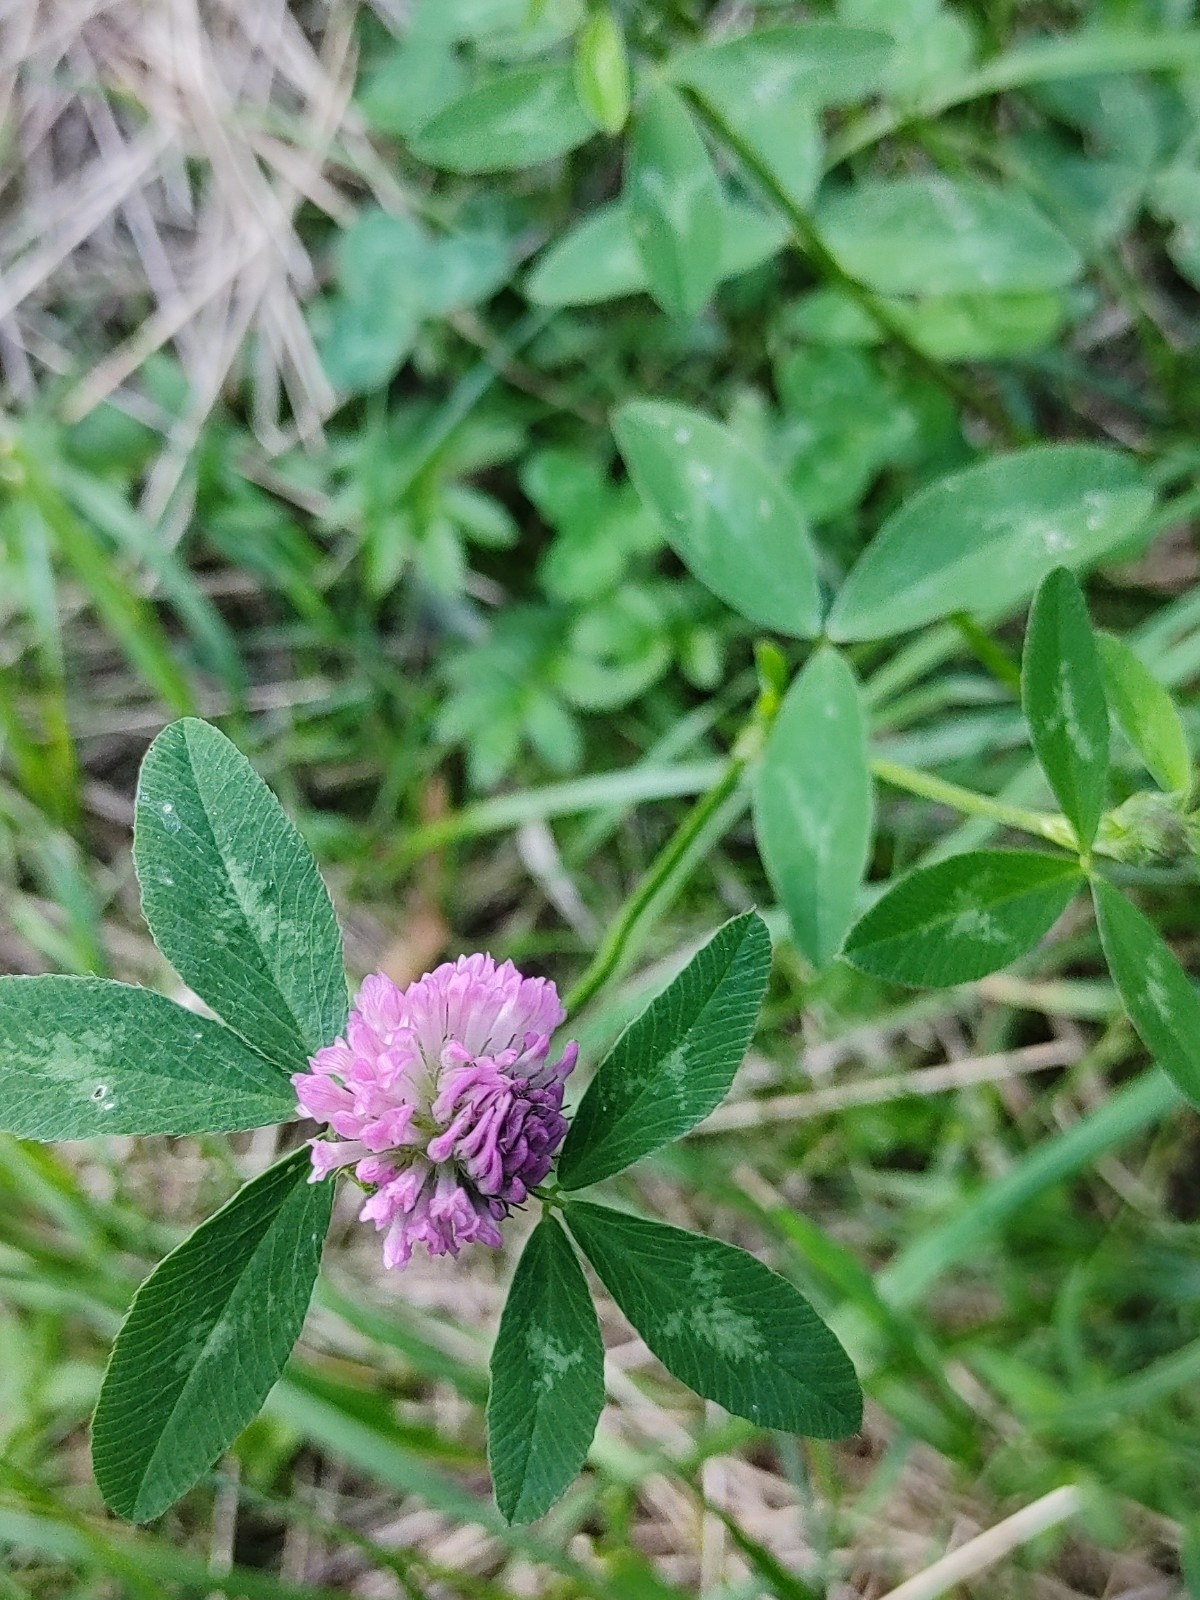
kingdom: Plantae
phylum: Tracheophyta
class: Magnoliopsida
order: Fabales
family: Fabaceae
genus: Trifolium
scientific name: Trifolium pratense
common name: Red clover
